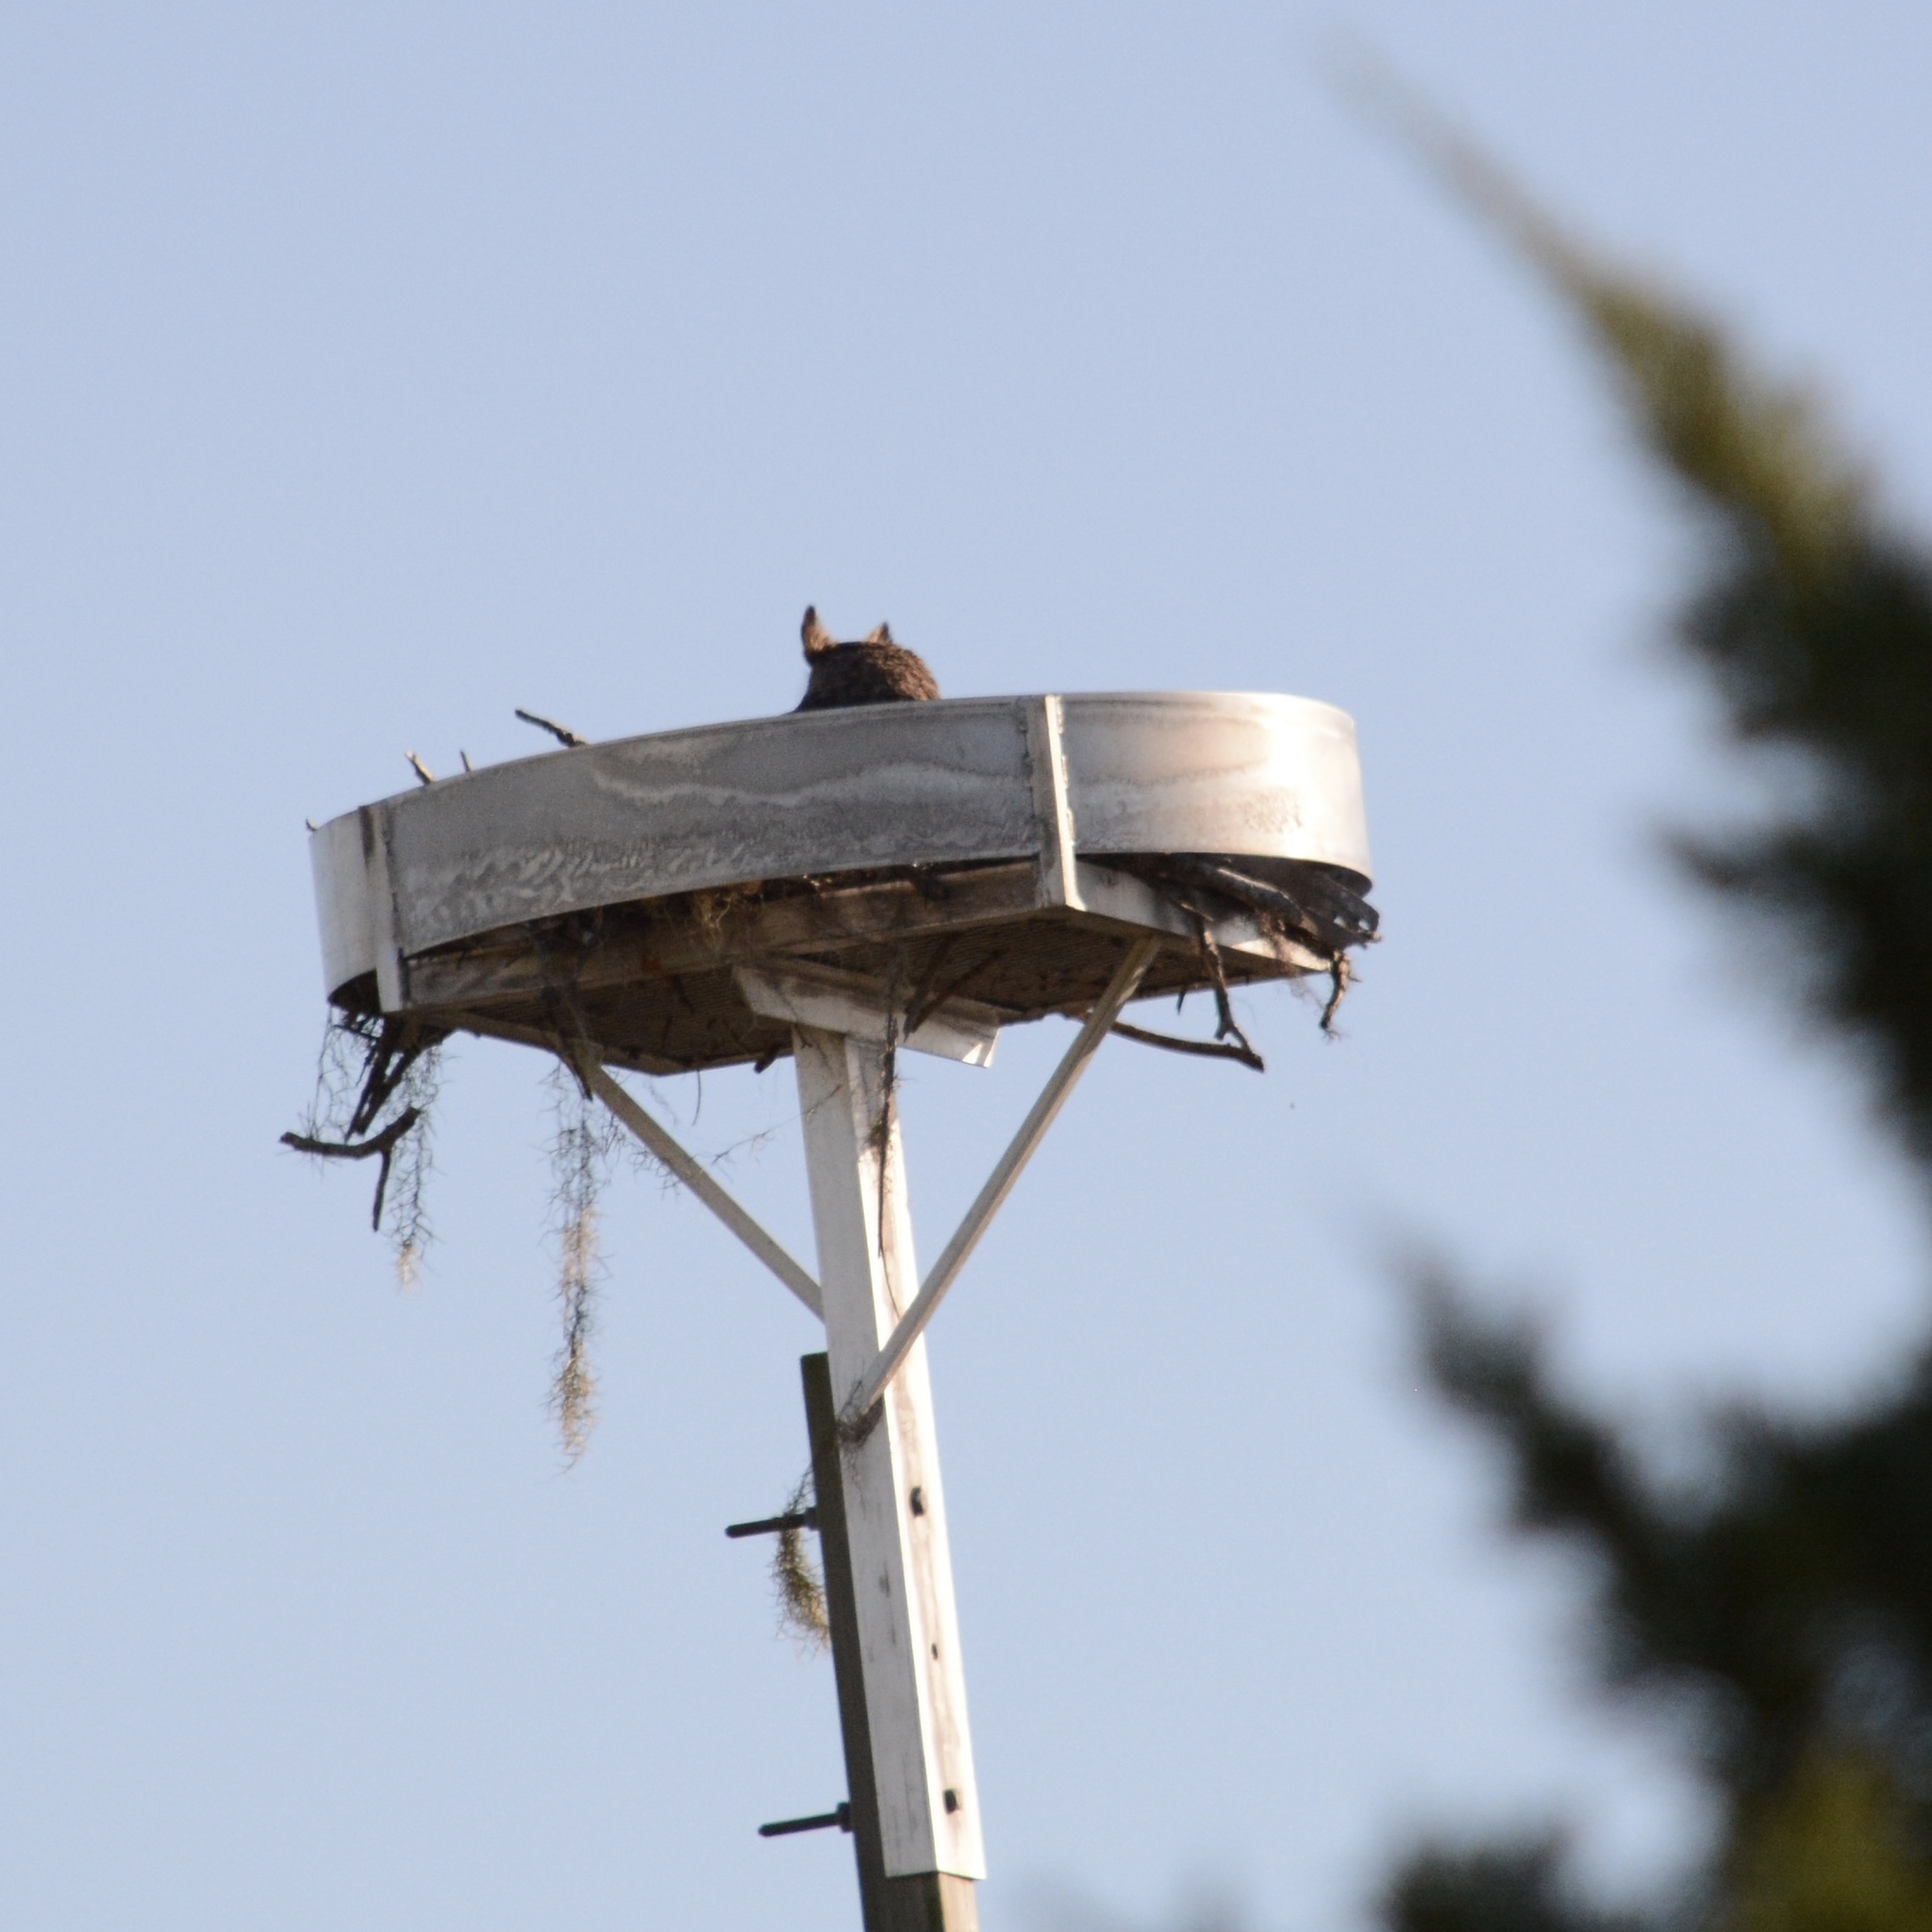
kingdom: Animalia
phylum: Chordata
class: Aves
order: Strigiformes
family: Strigidae
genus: Bubo
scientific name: Bubo virginianus
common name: Great horned owl
